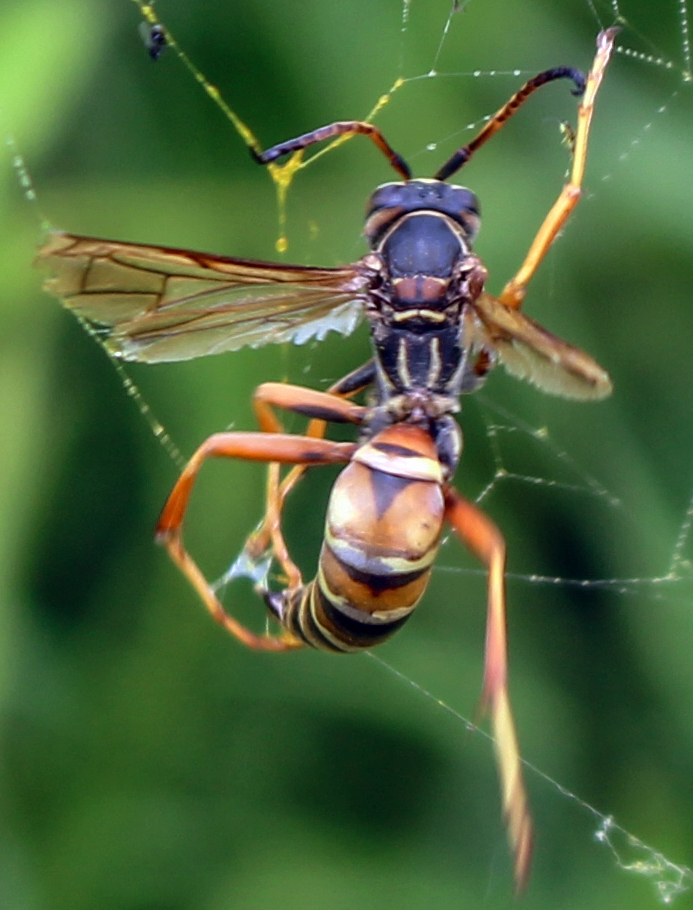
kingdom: Animalia
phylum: Arthropoda
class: Insecta
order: Hymenoptera
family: Eumenidae
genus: Polistes
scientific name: Polistes fuscatus
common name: Dark paper wasp
